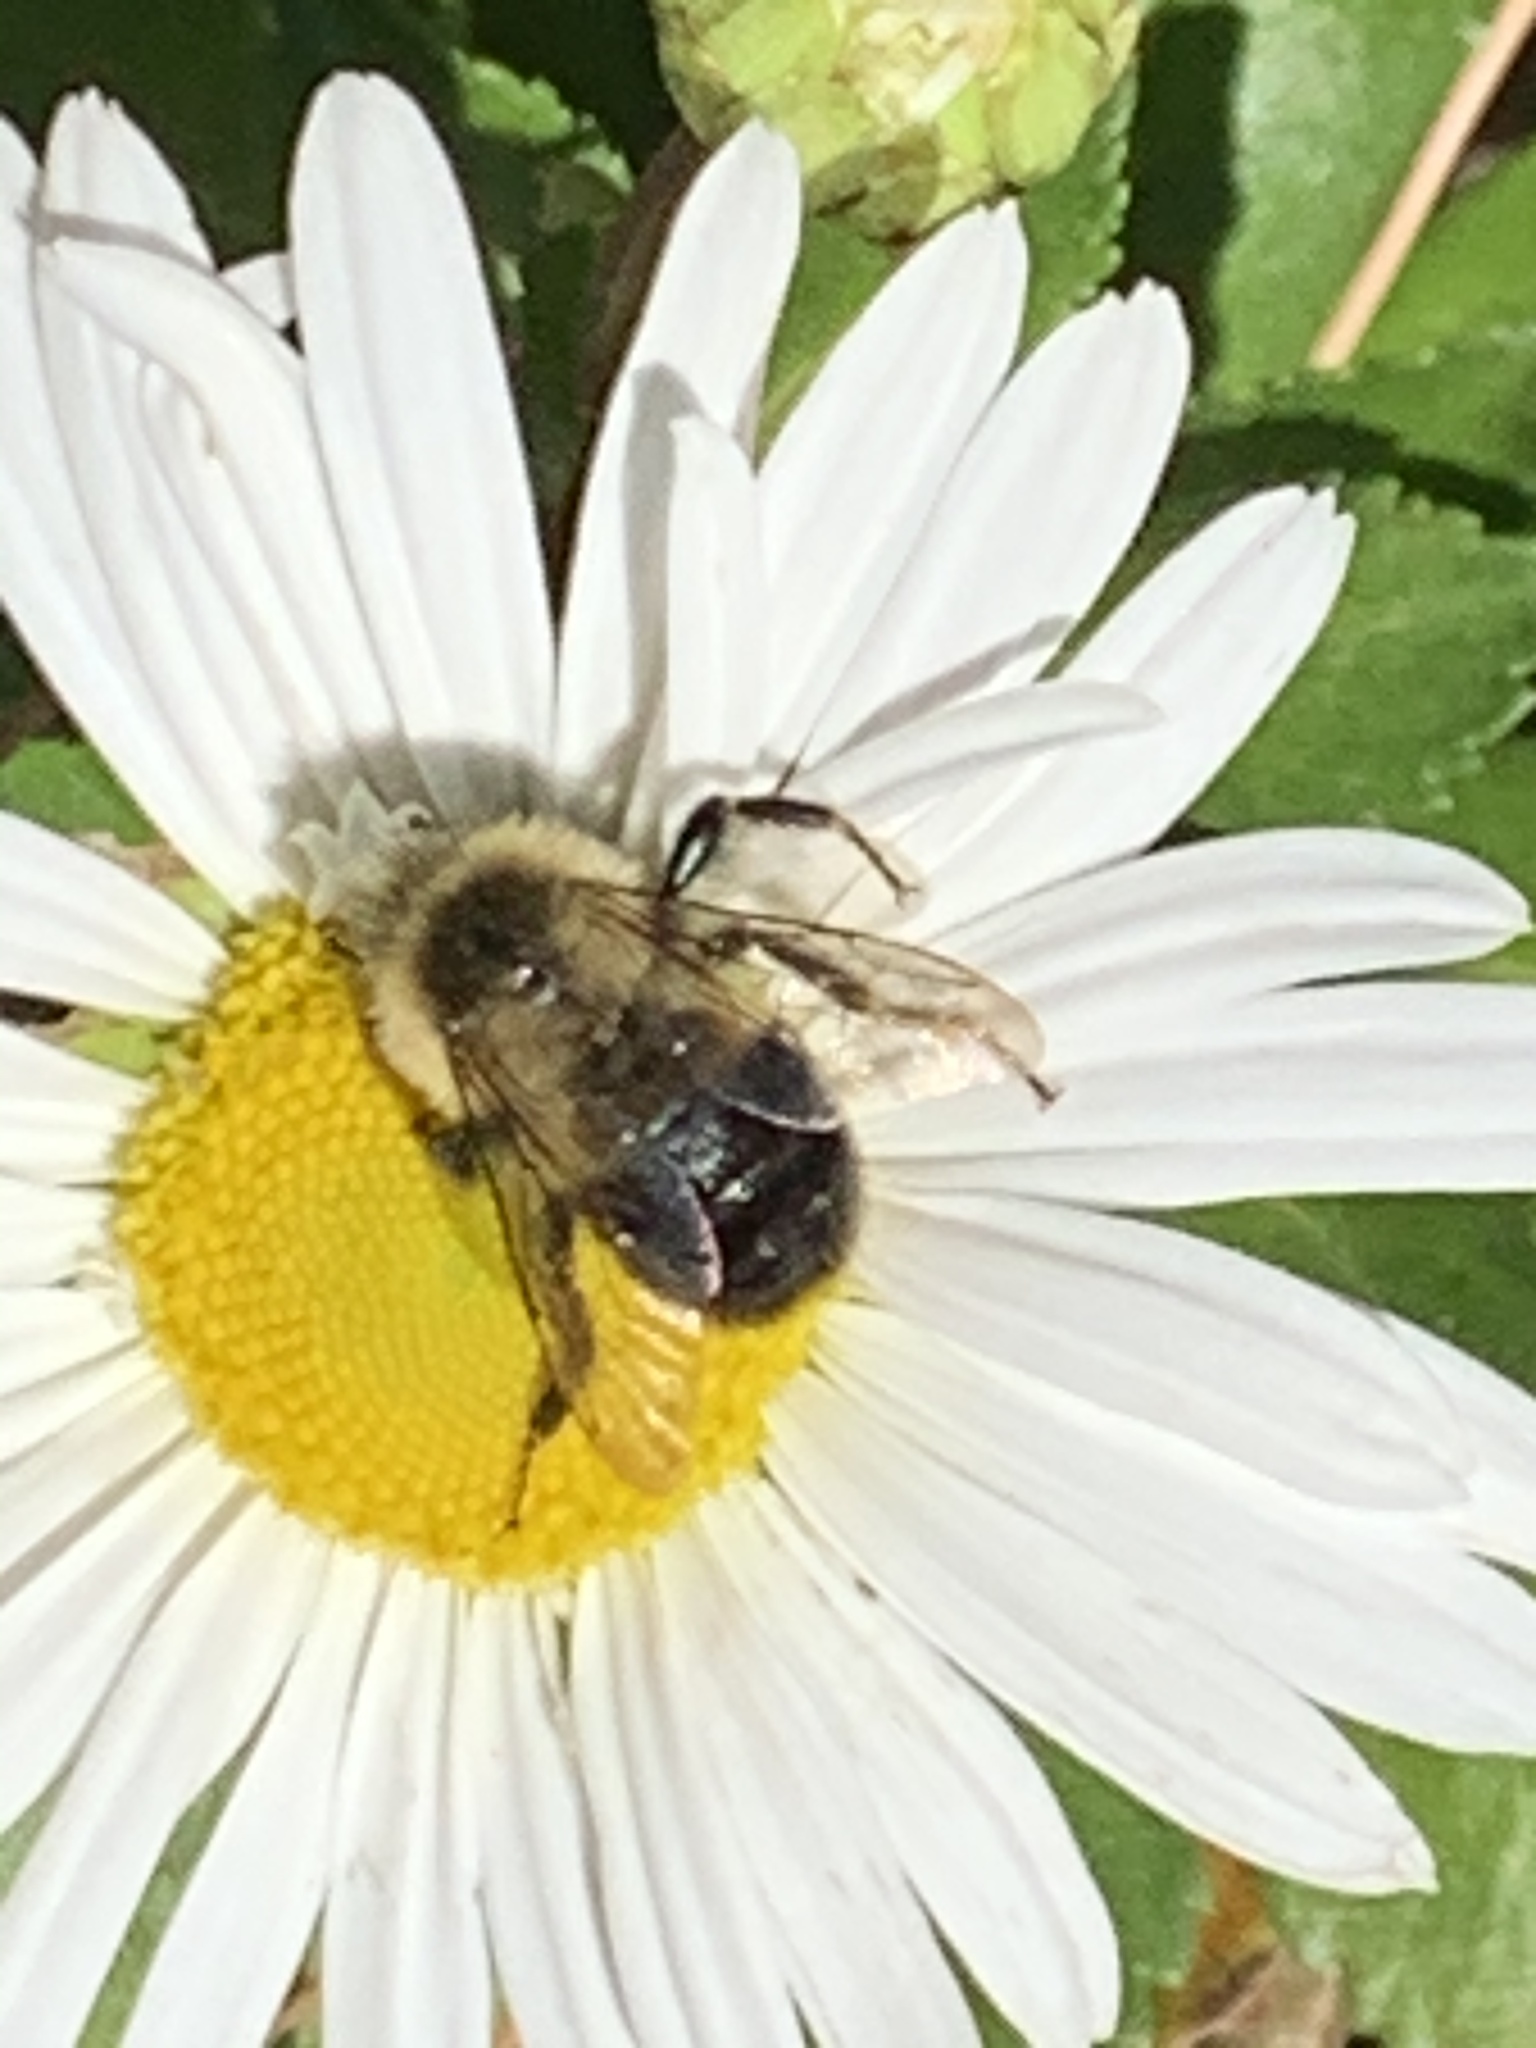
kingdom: Animalia
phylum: Arthropoda
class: Insecta
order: Hymenoptera
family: Apidae
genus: Bombus
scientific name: Bombus impatiens
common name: Common eastern bumble bee
